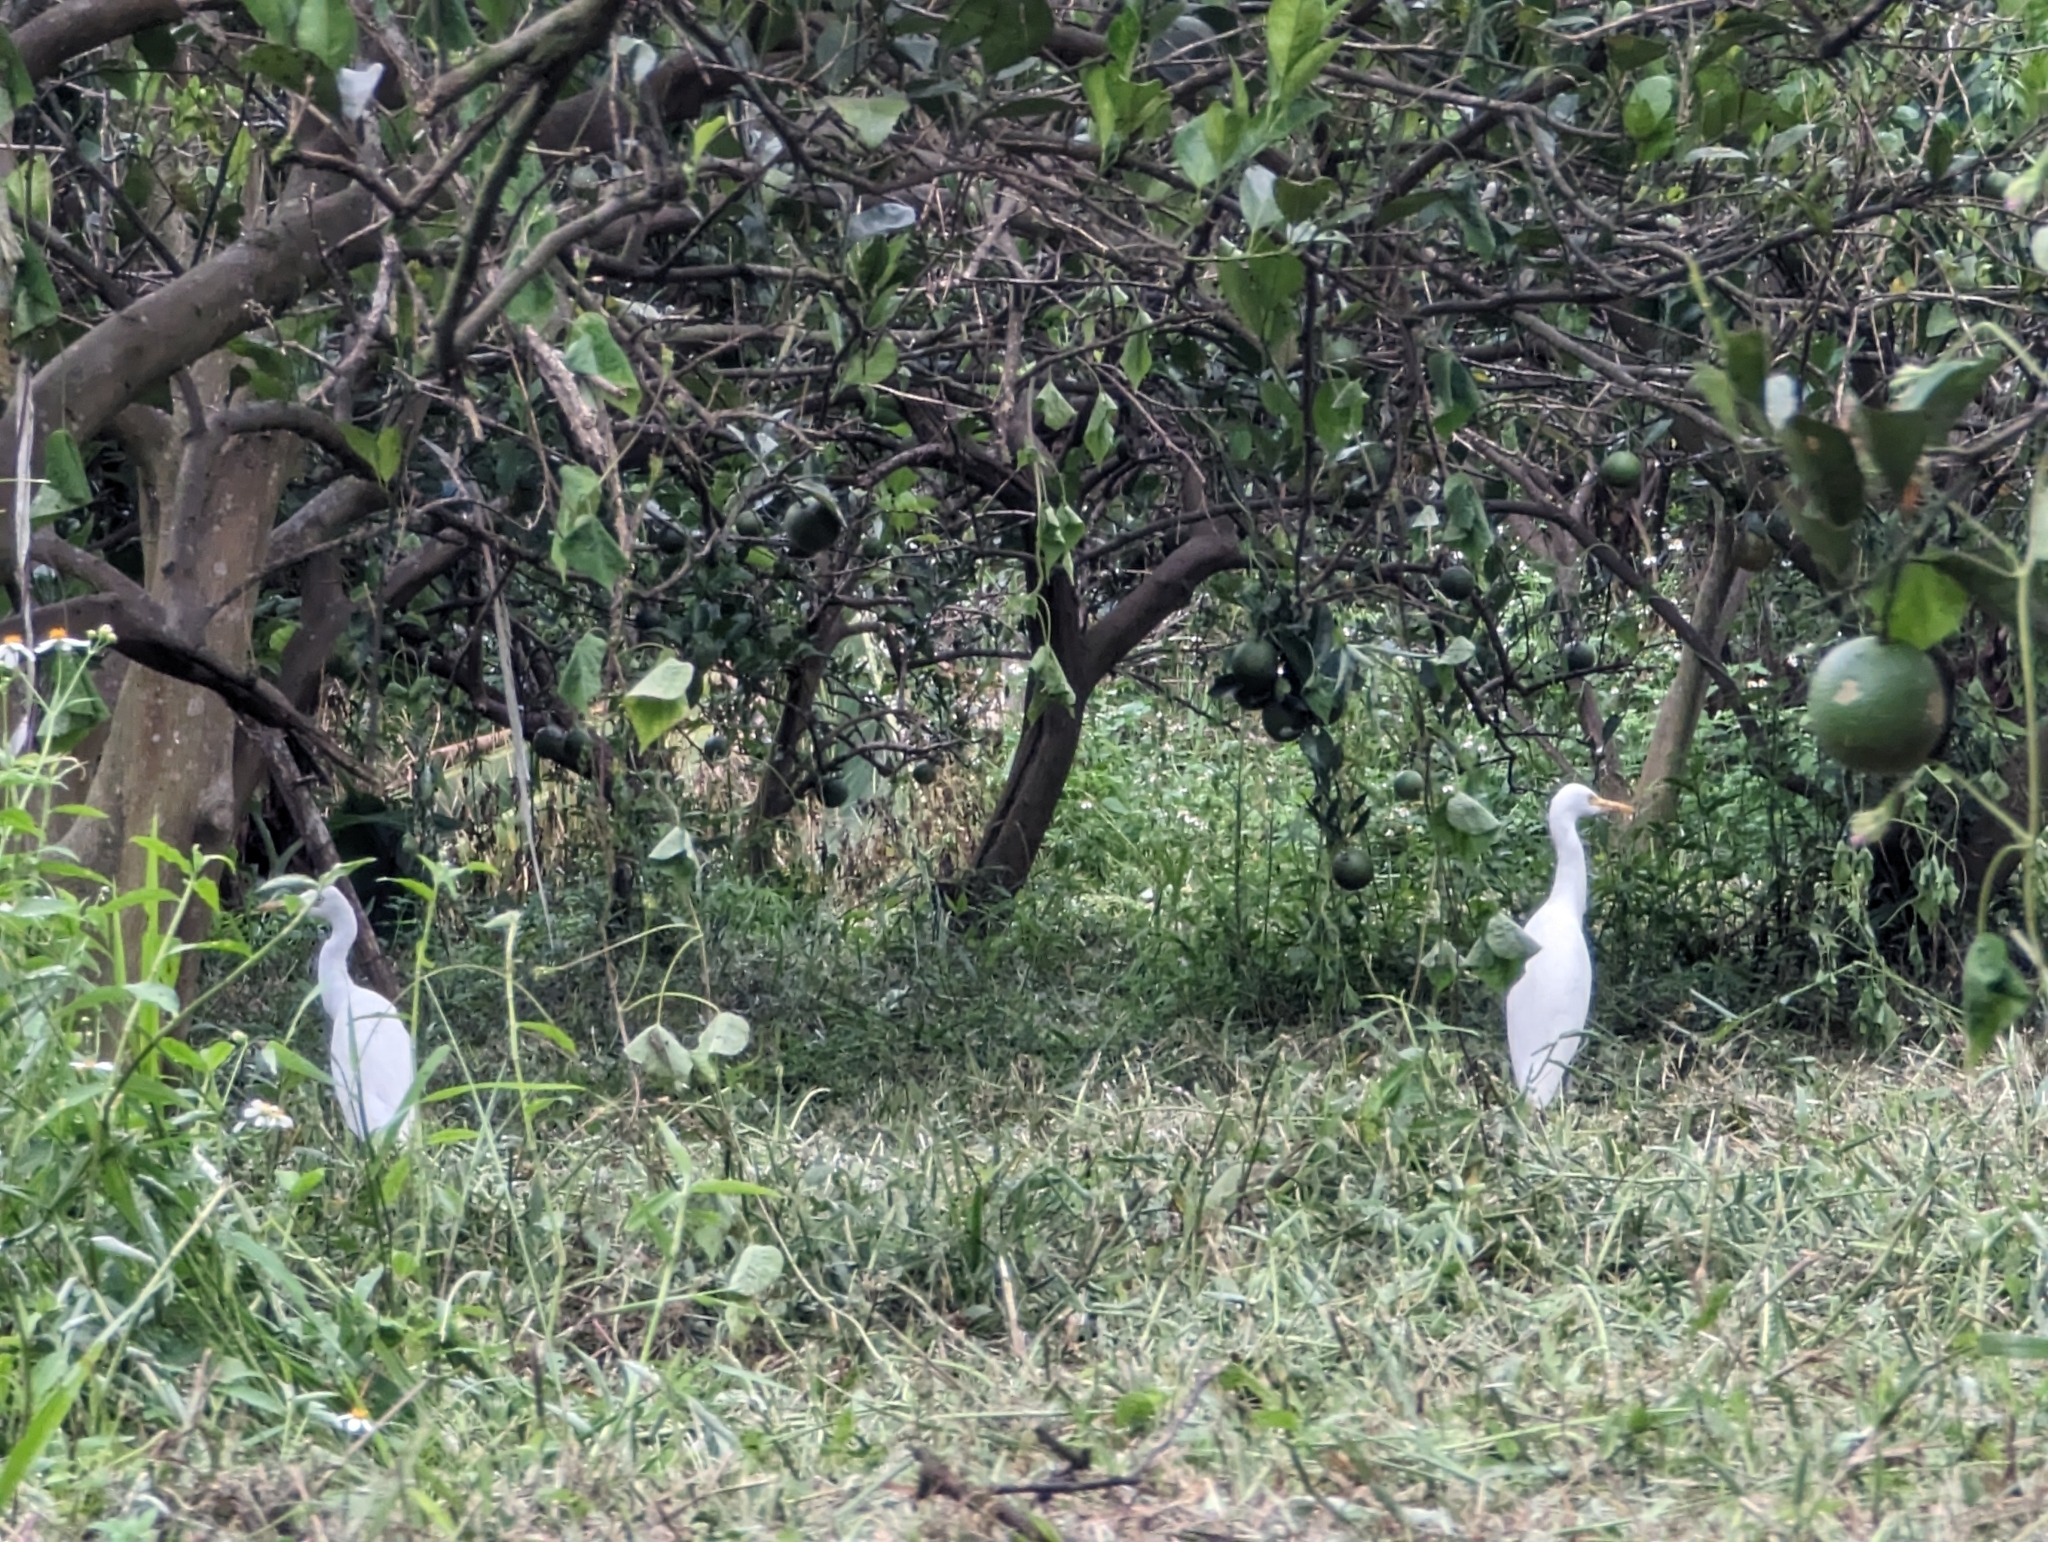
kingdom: Animalia
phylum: Chordata
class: Aves
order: Pelecaniformes
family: Ardeidae
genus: Bubulcus
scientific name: Bubulcus coromandus
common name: Eastern cattle egret
